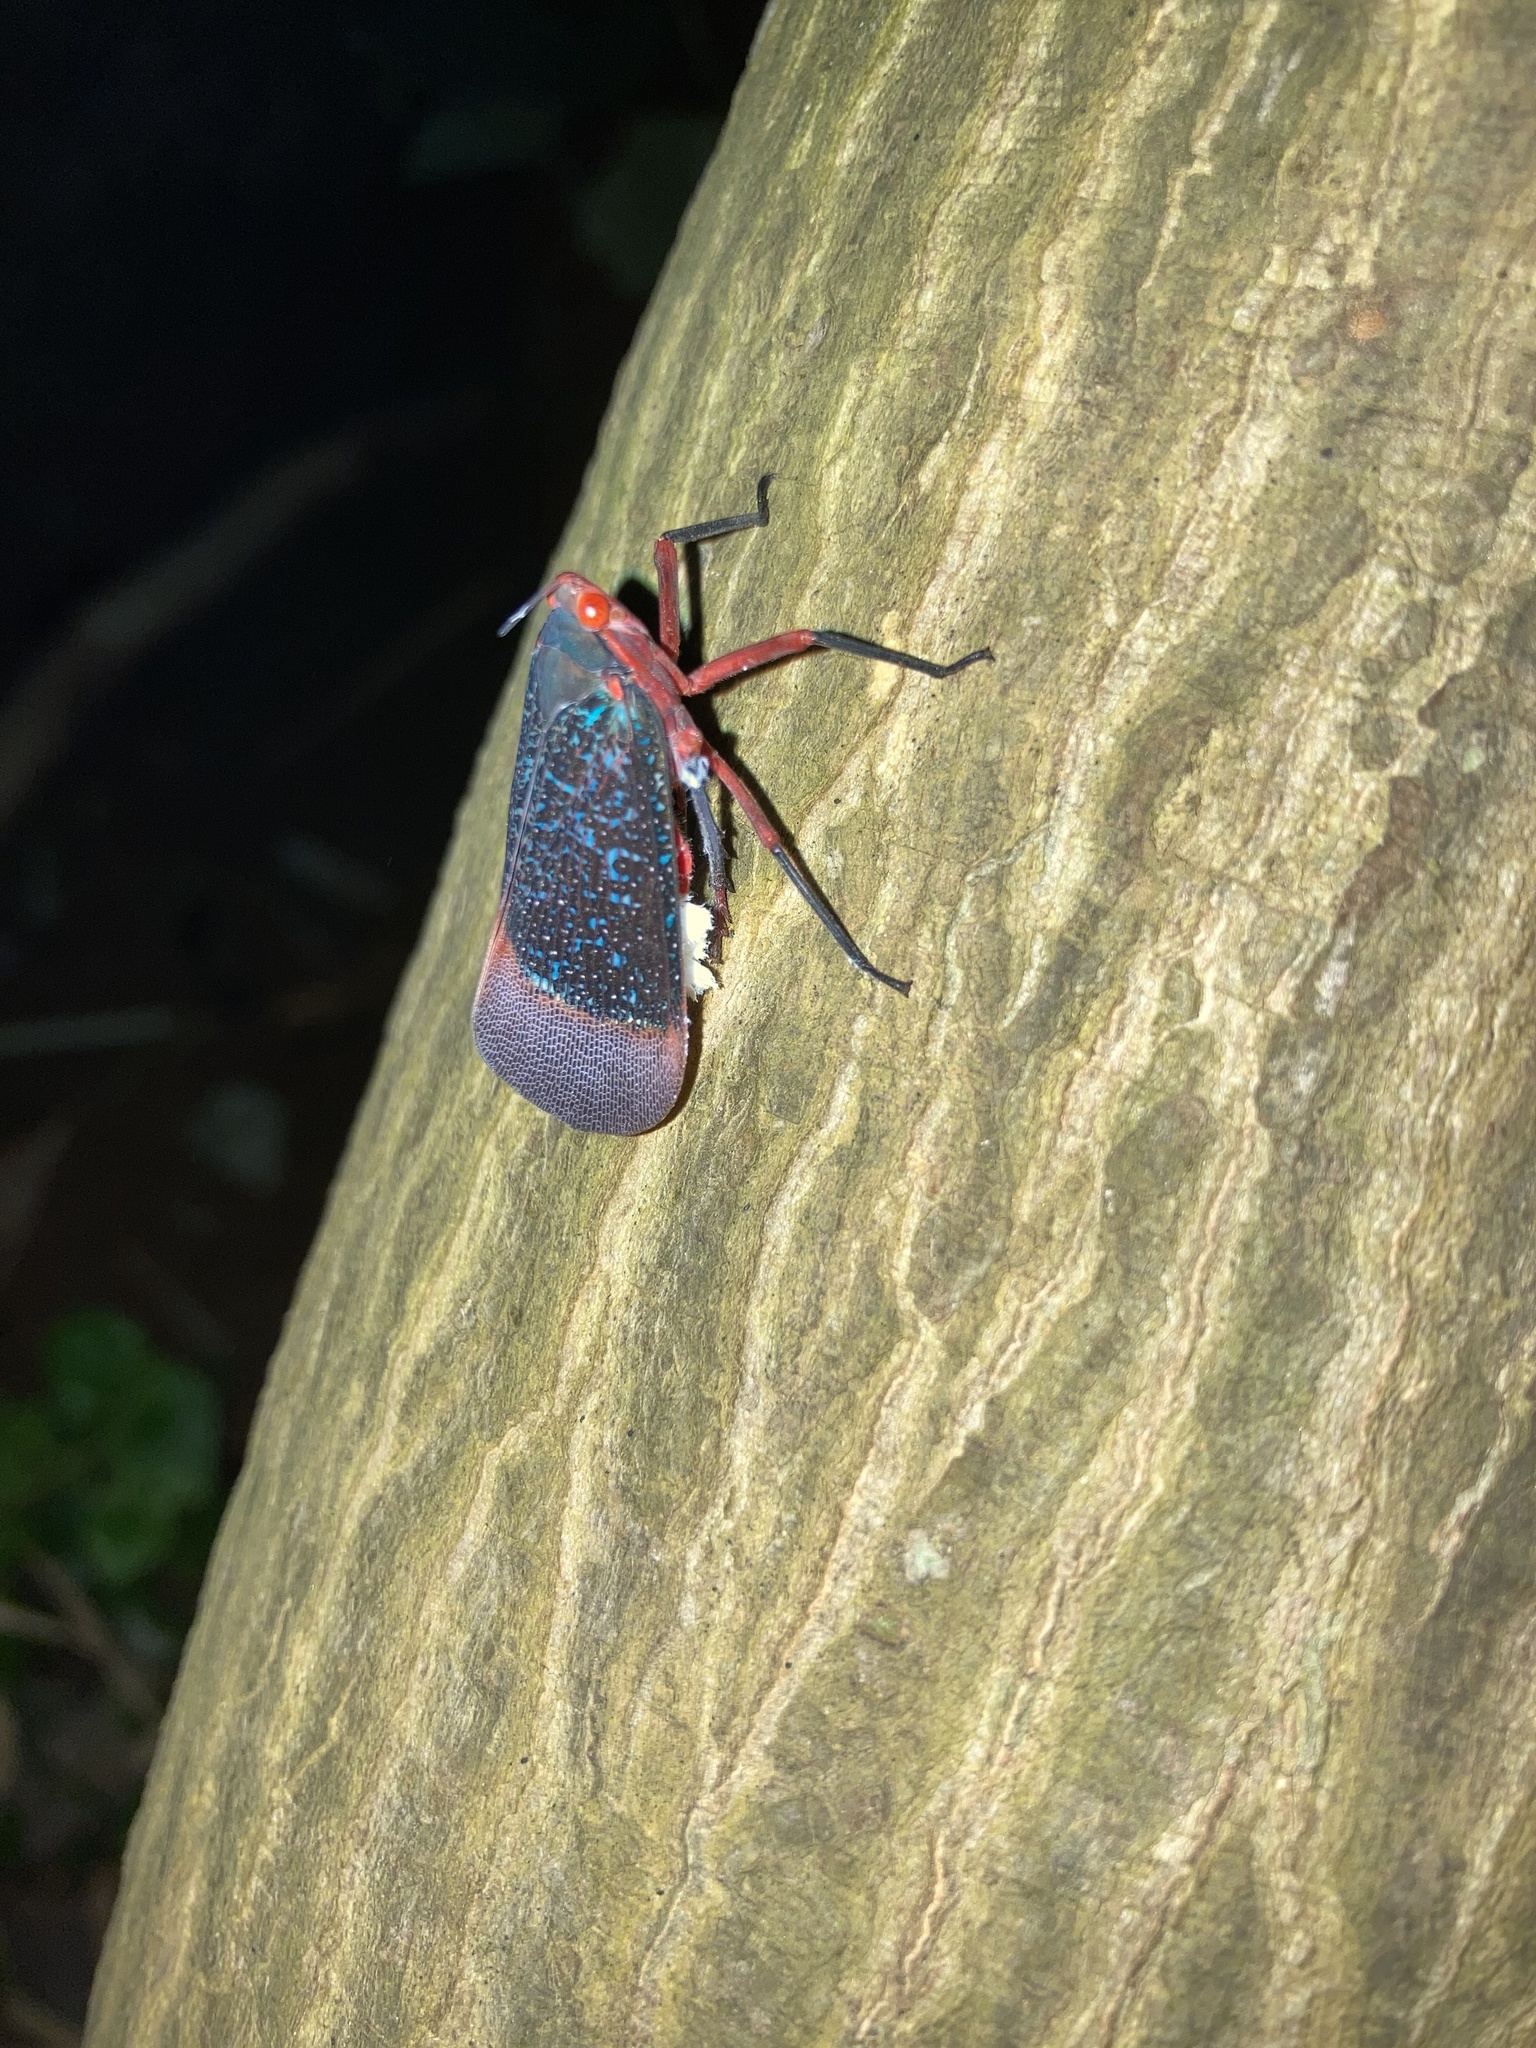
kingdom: Animalia
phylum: Arthropoda
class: Insecta
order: Hemiptera
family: Fulgoridae
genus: Kalidasa
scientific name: Kalidasa lanata
